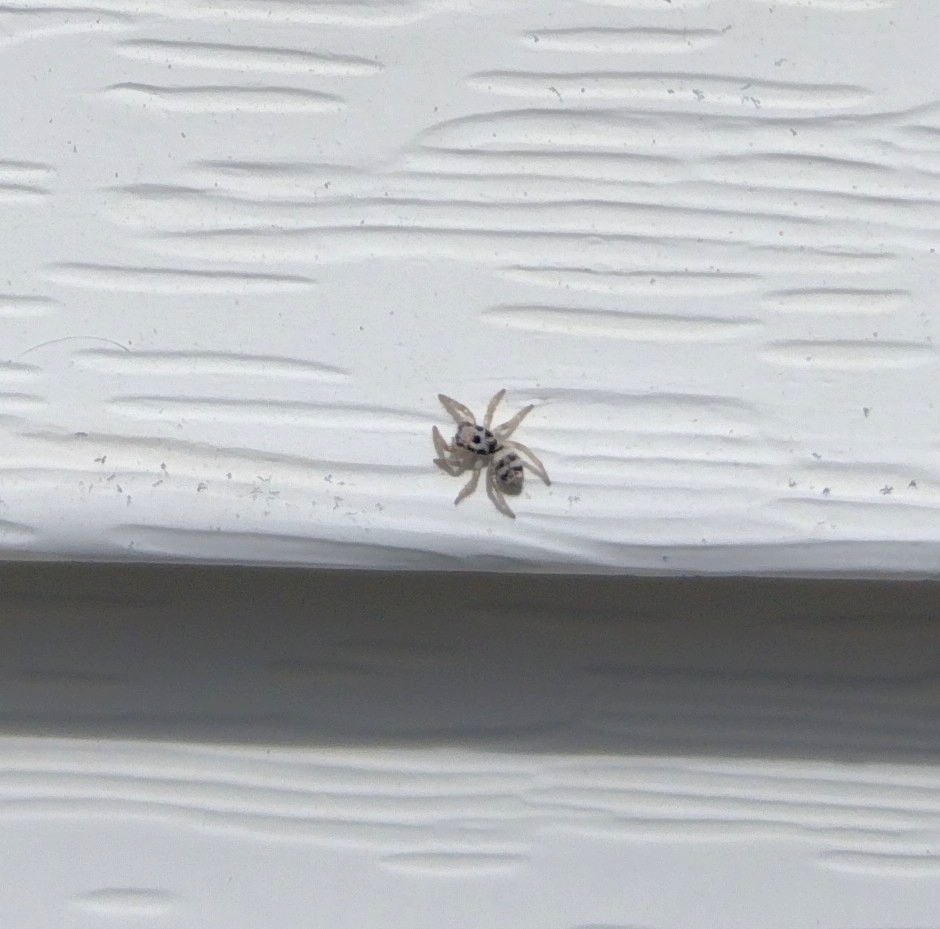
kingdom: Animalia
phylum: Arthropoda
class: Arachnida
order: Araneae
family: Salticidae
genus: Salticus
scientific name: Salticus scenicus
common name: Zebra jumper
